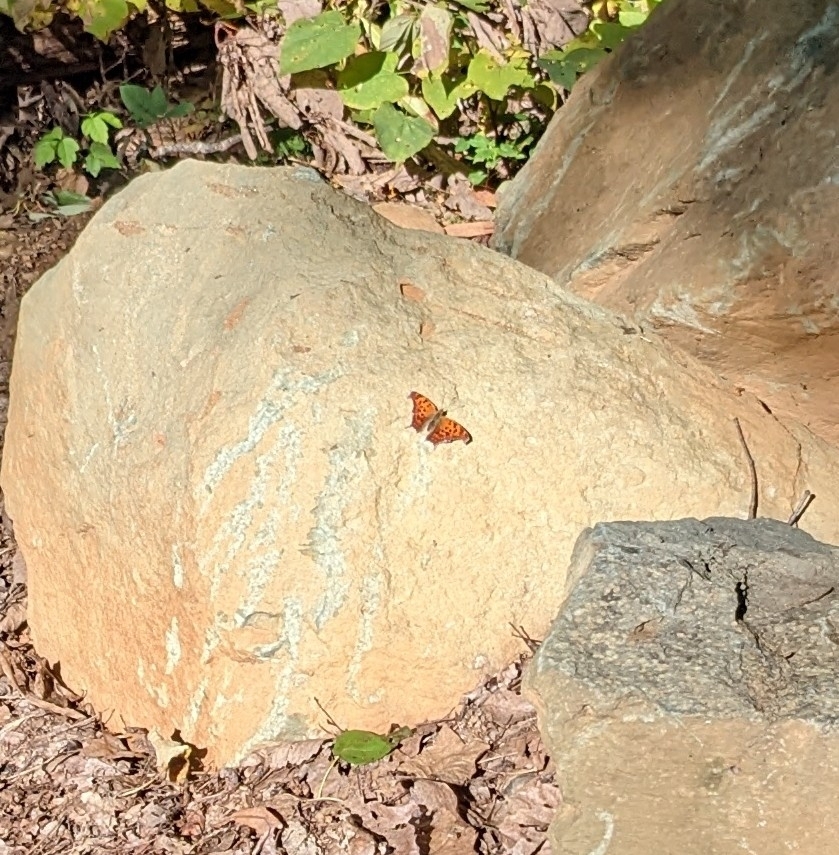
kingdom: Animalia
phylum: Arthropoda
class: Insecta
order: Lepidoptera
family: Nymphalidae
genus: Polygonia
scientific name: Polygonia interrogationis
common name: Question mark
